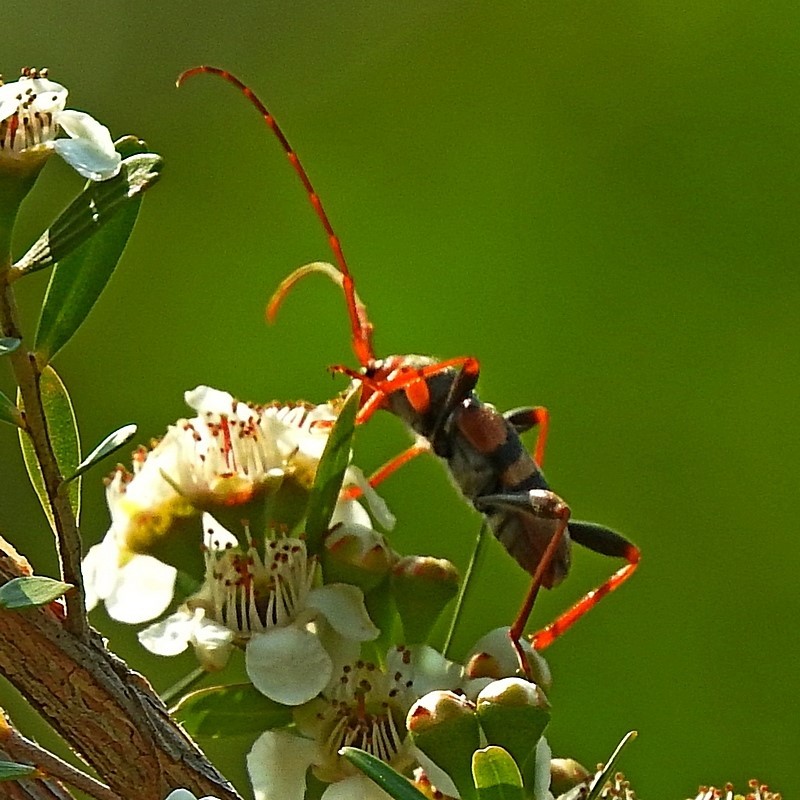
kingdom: Animalia
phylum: Arthropoda
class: Insecta
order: Coleoptera
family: Cerambycidae
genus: Aridaeus
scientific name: Aridaeus thoracicus
